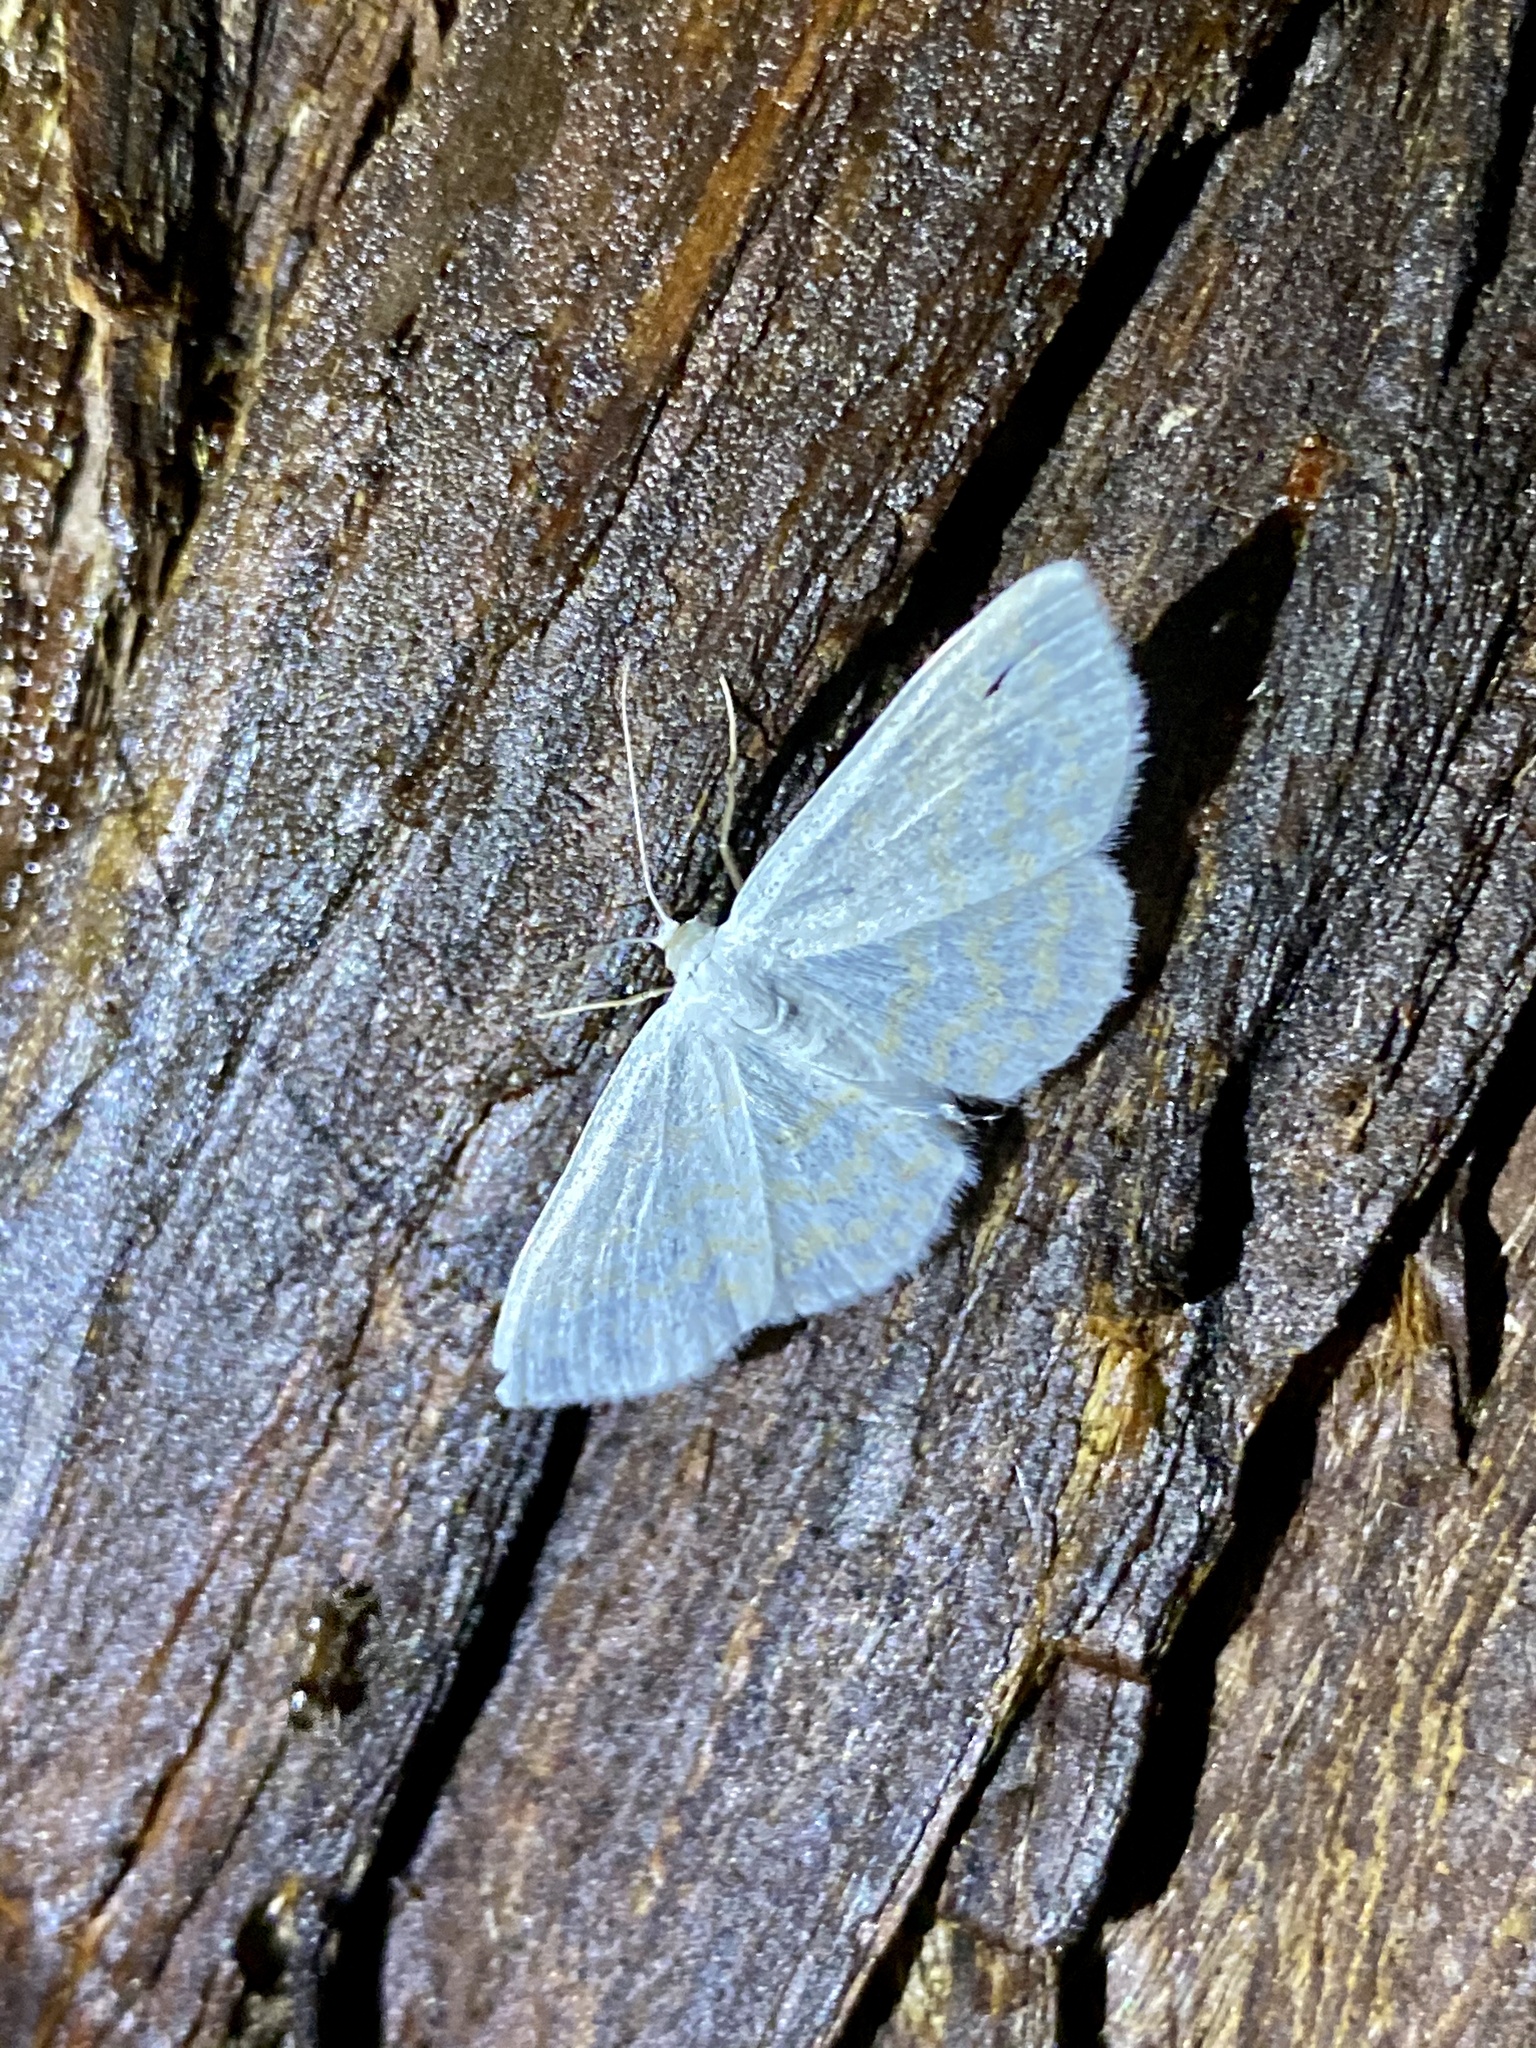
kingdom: Animalia
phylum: Arthropoda
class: Insecta
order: Lepidoptera
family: Geometridae
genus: Scopula
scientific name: Scopula superior
